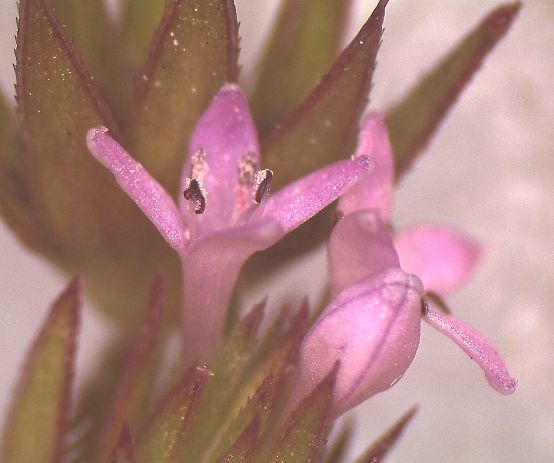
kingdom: Plantae
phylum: Tracheophyta
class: Magnoliopsida
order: Gentianales
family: Rubiaceae
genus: Sherardia
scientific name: Sherardia arvensis
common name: Field madder
